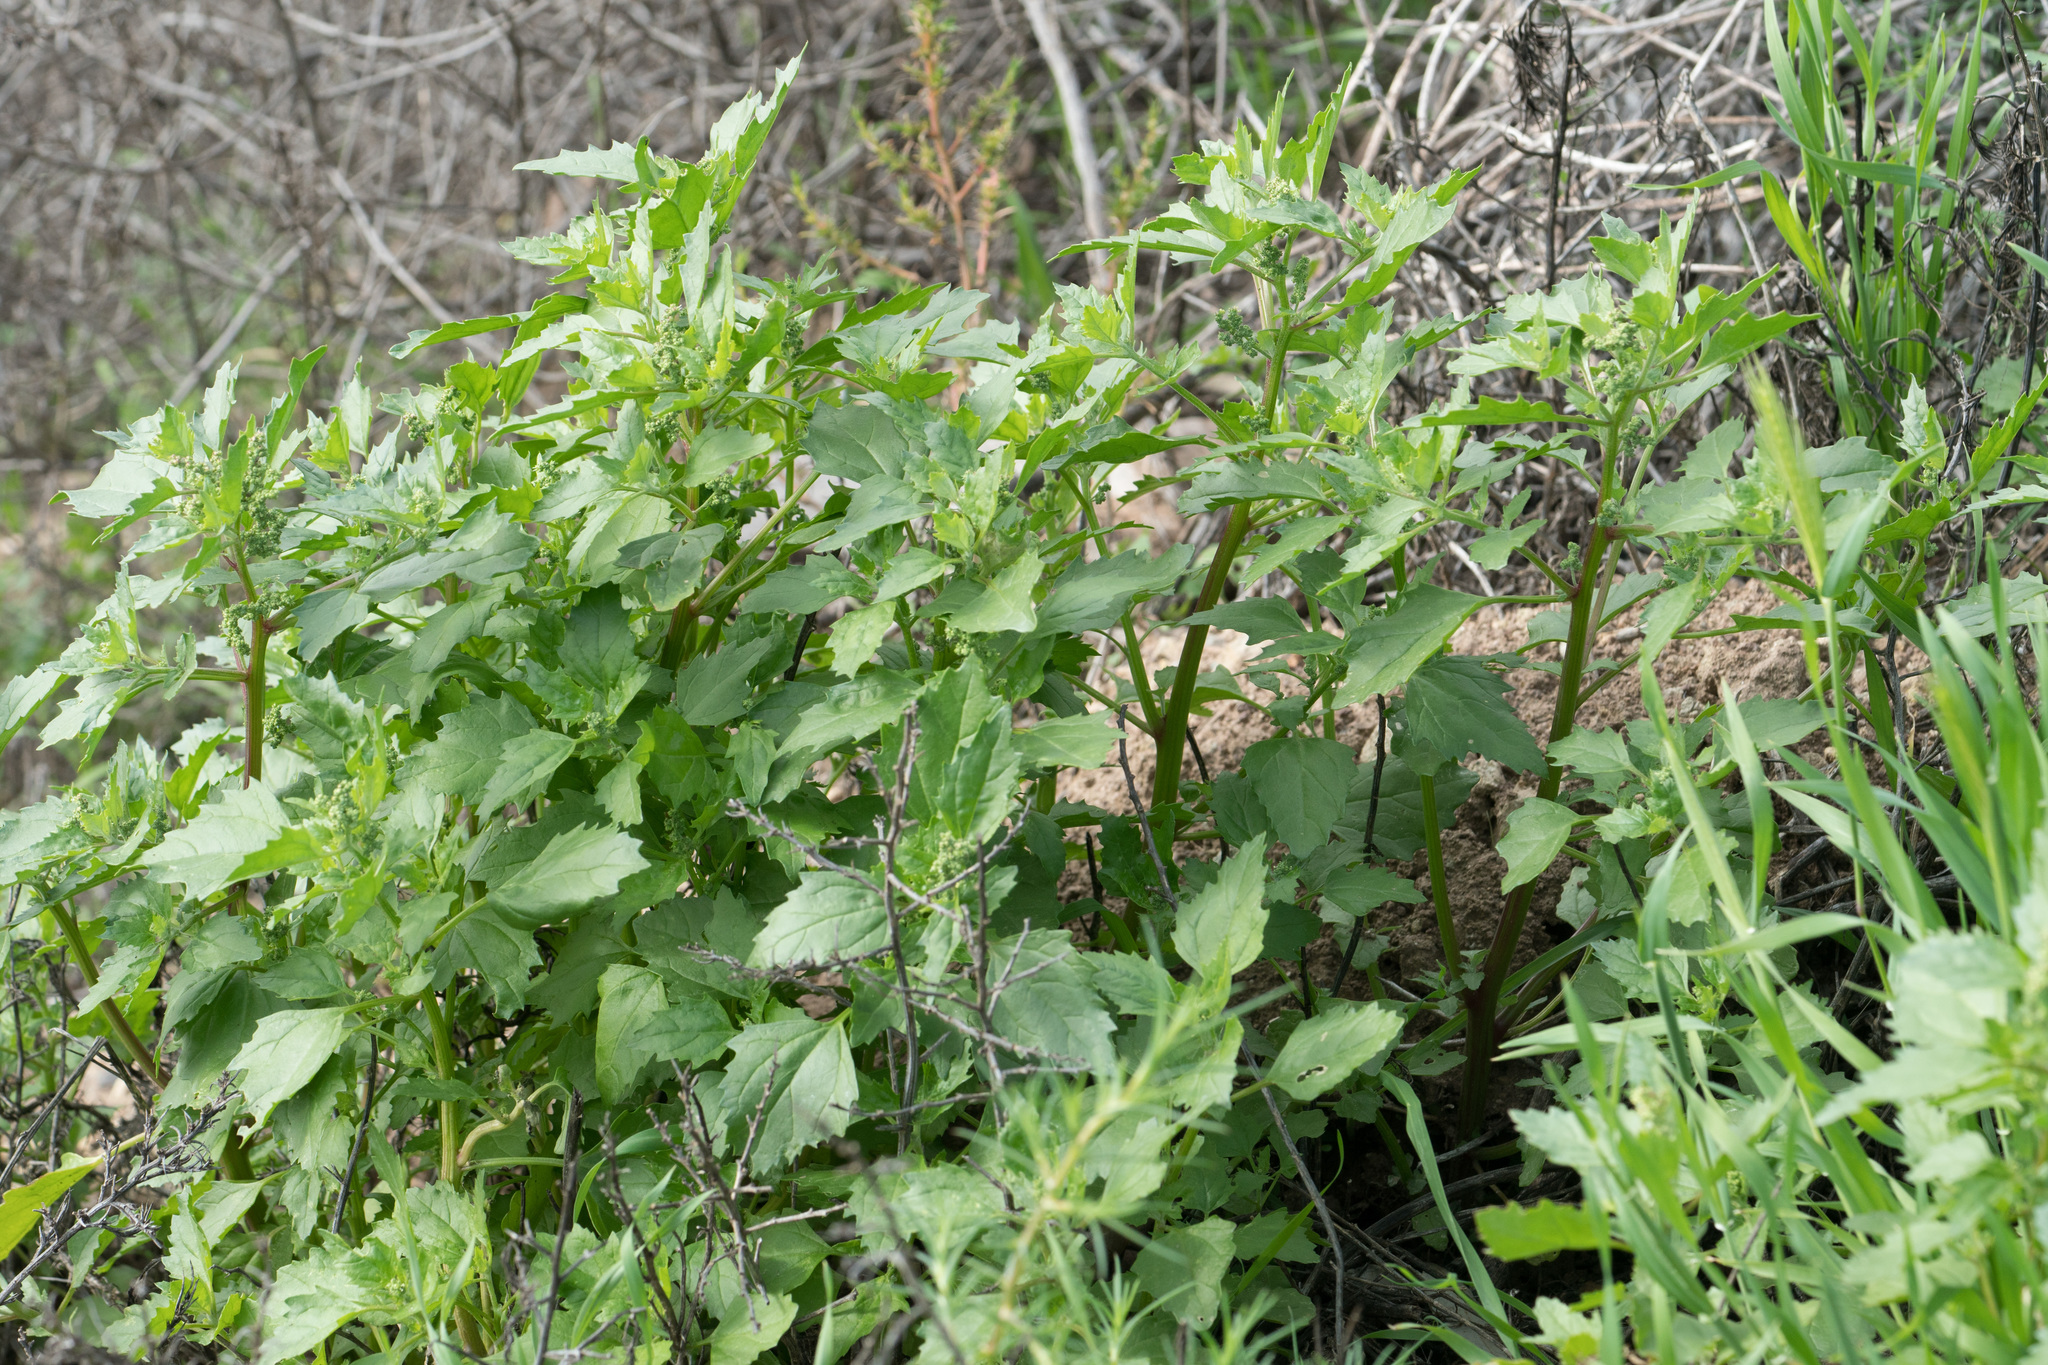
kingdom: Plantae
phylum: Tracheophyta
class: Magnoliopsida
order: Caryophyllales
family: Amaranthaceae
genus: Chenopodiastrum
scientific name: Chenopodiastrum murale
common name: Sowbane
